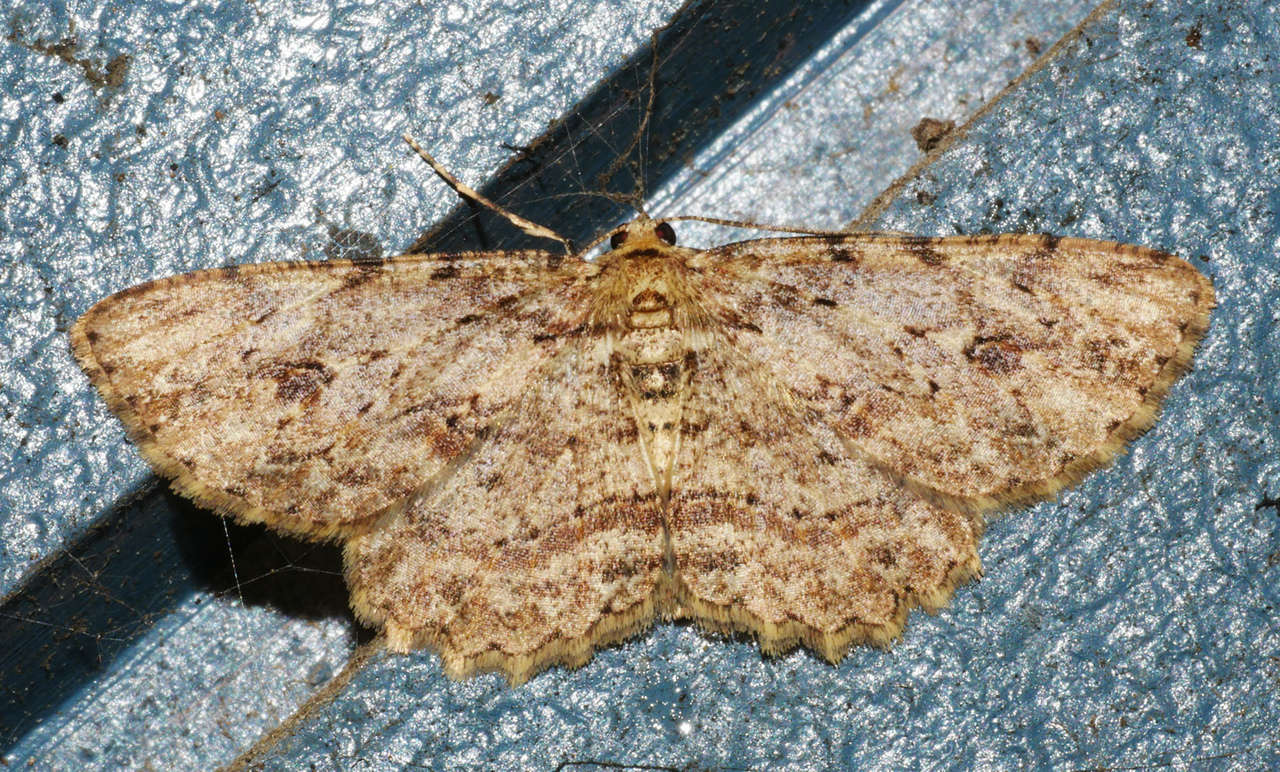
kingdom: Animalia
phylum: Arthropoda
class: Insecta
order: Lepidoptera
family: Geometridae
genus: Ectropis
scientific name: Ectropis bispinaria
